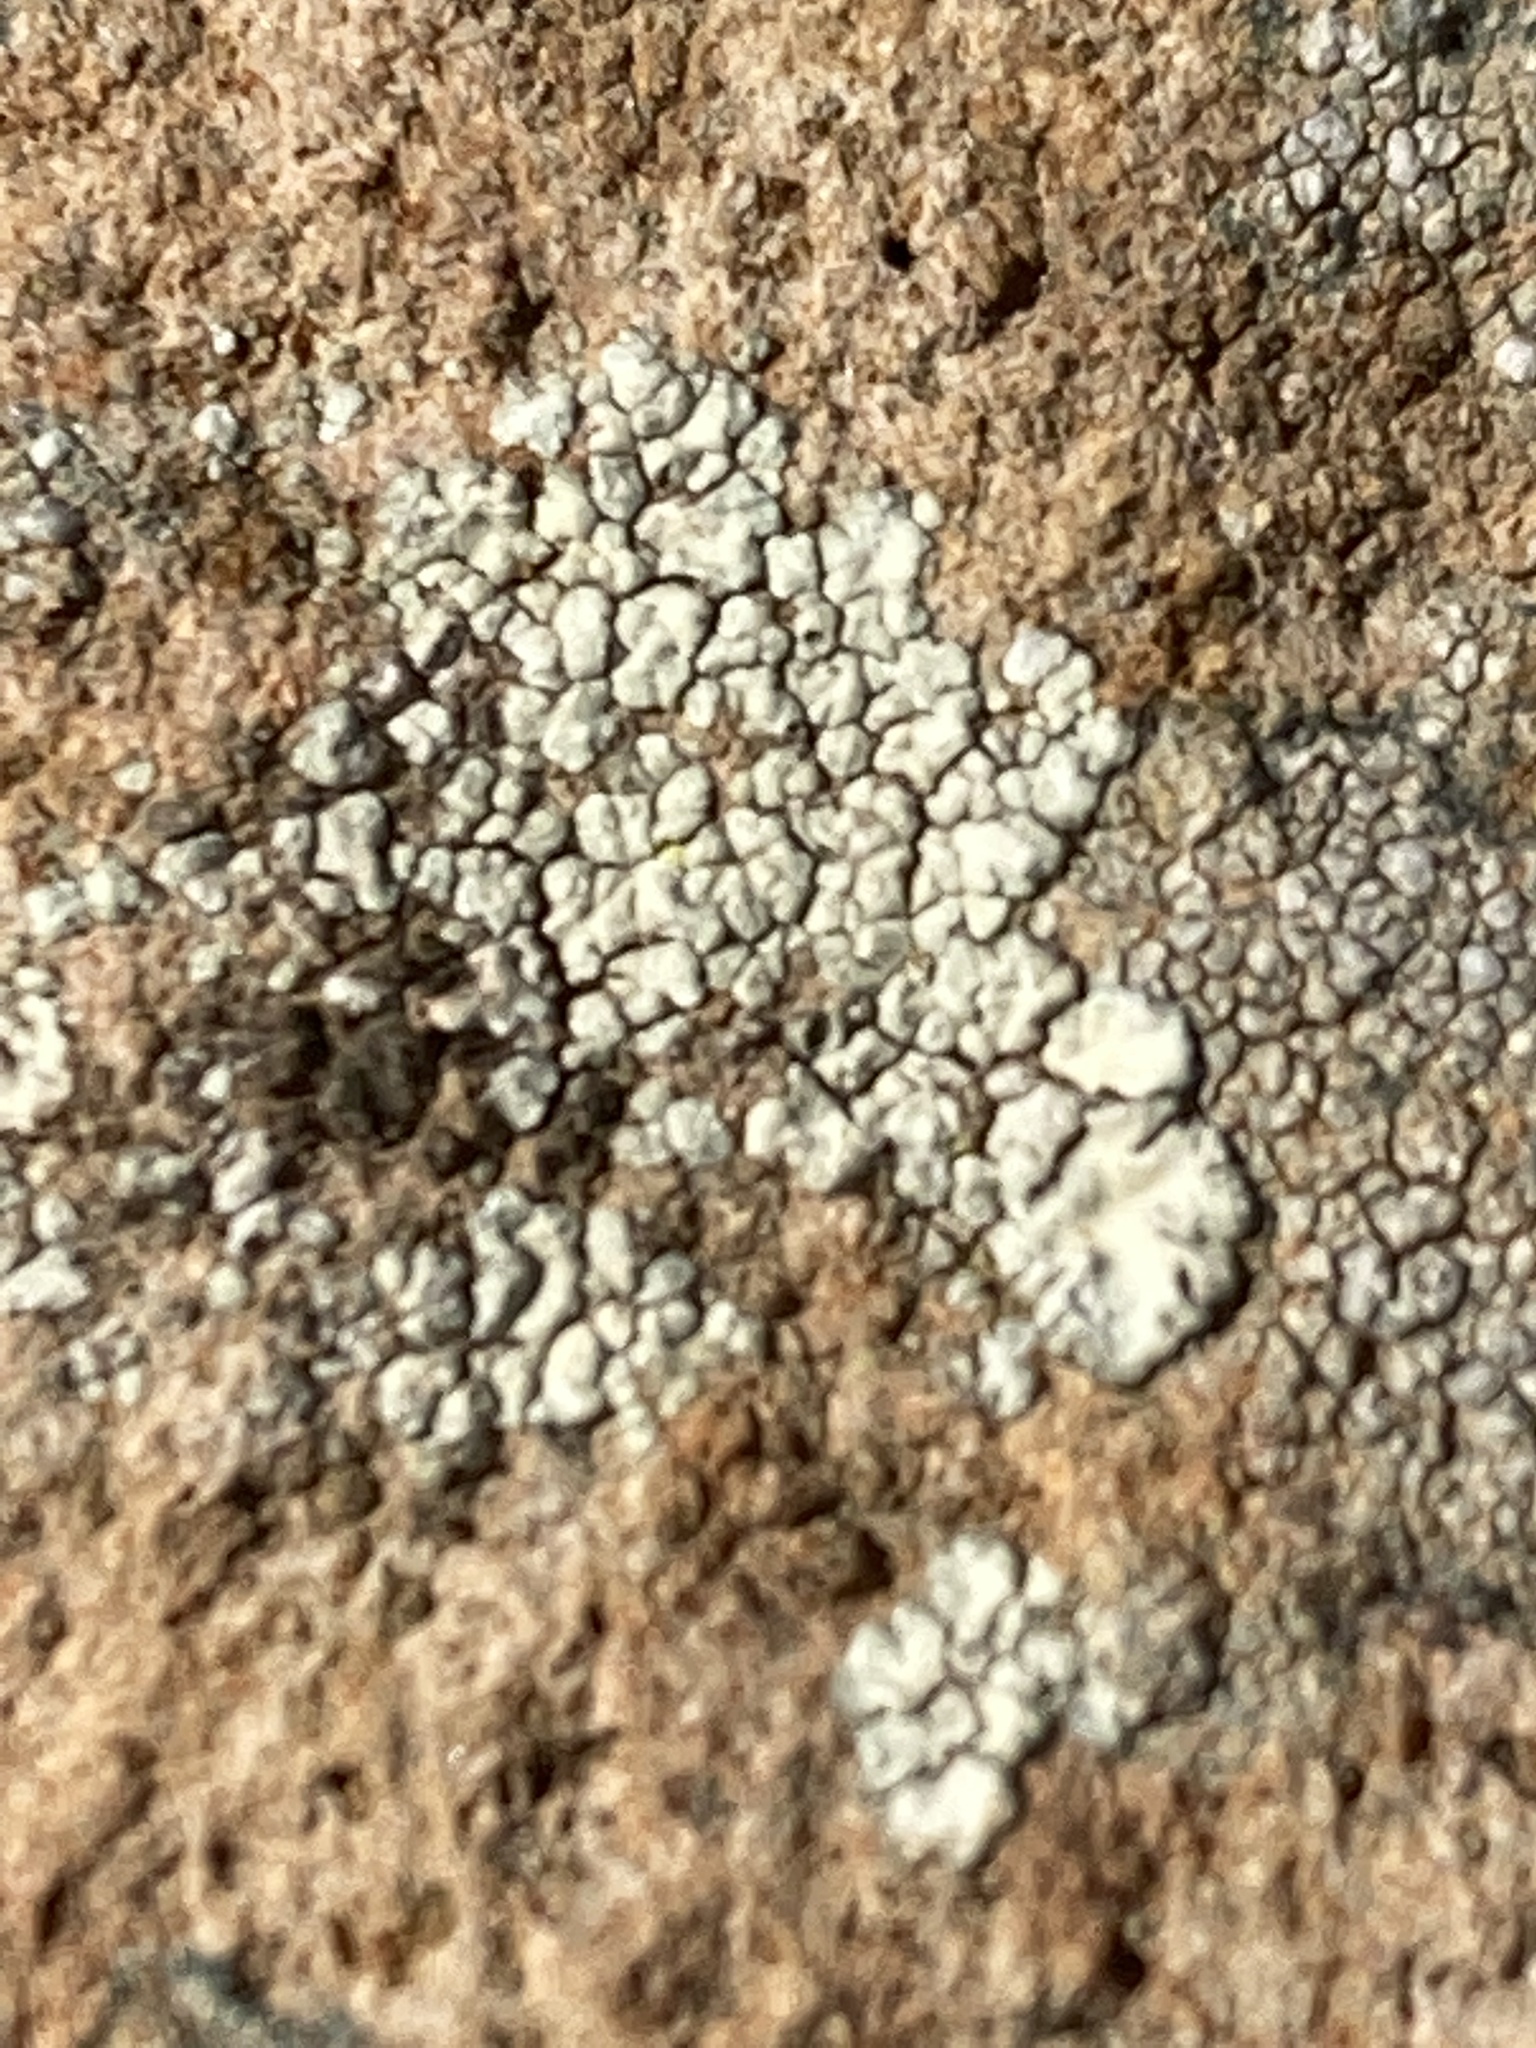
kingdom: Fungi
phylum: Ascomycota
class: Lecanoromycetes
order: Acarosporales
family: Acarosporaceae
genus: Acarospora
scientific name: Acarospora strigata
